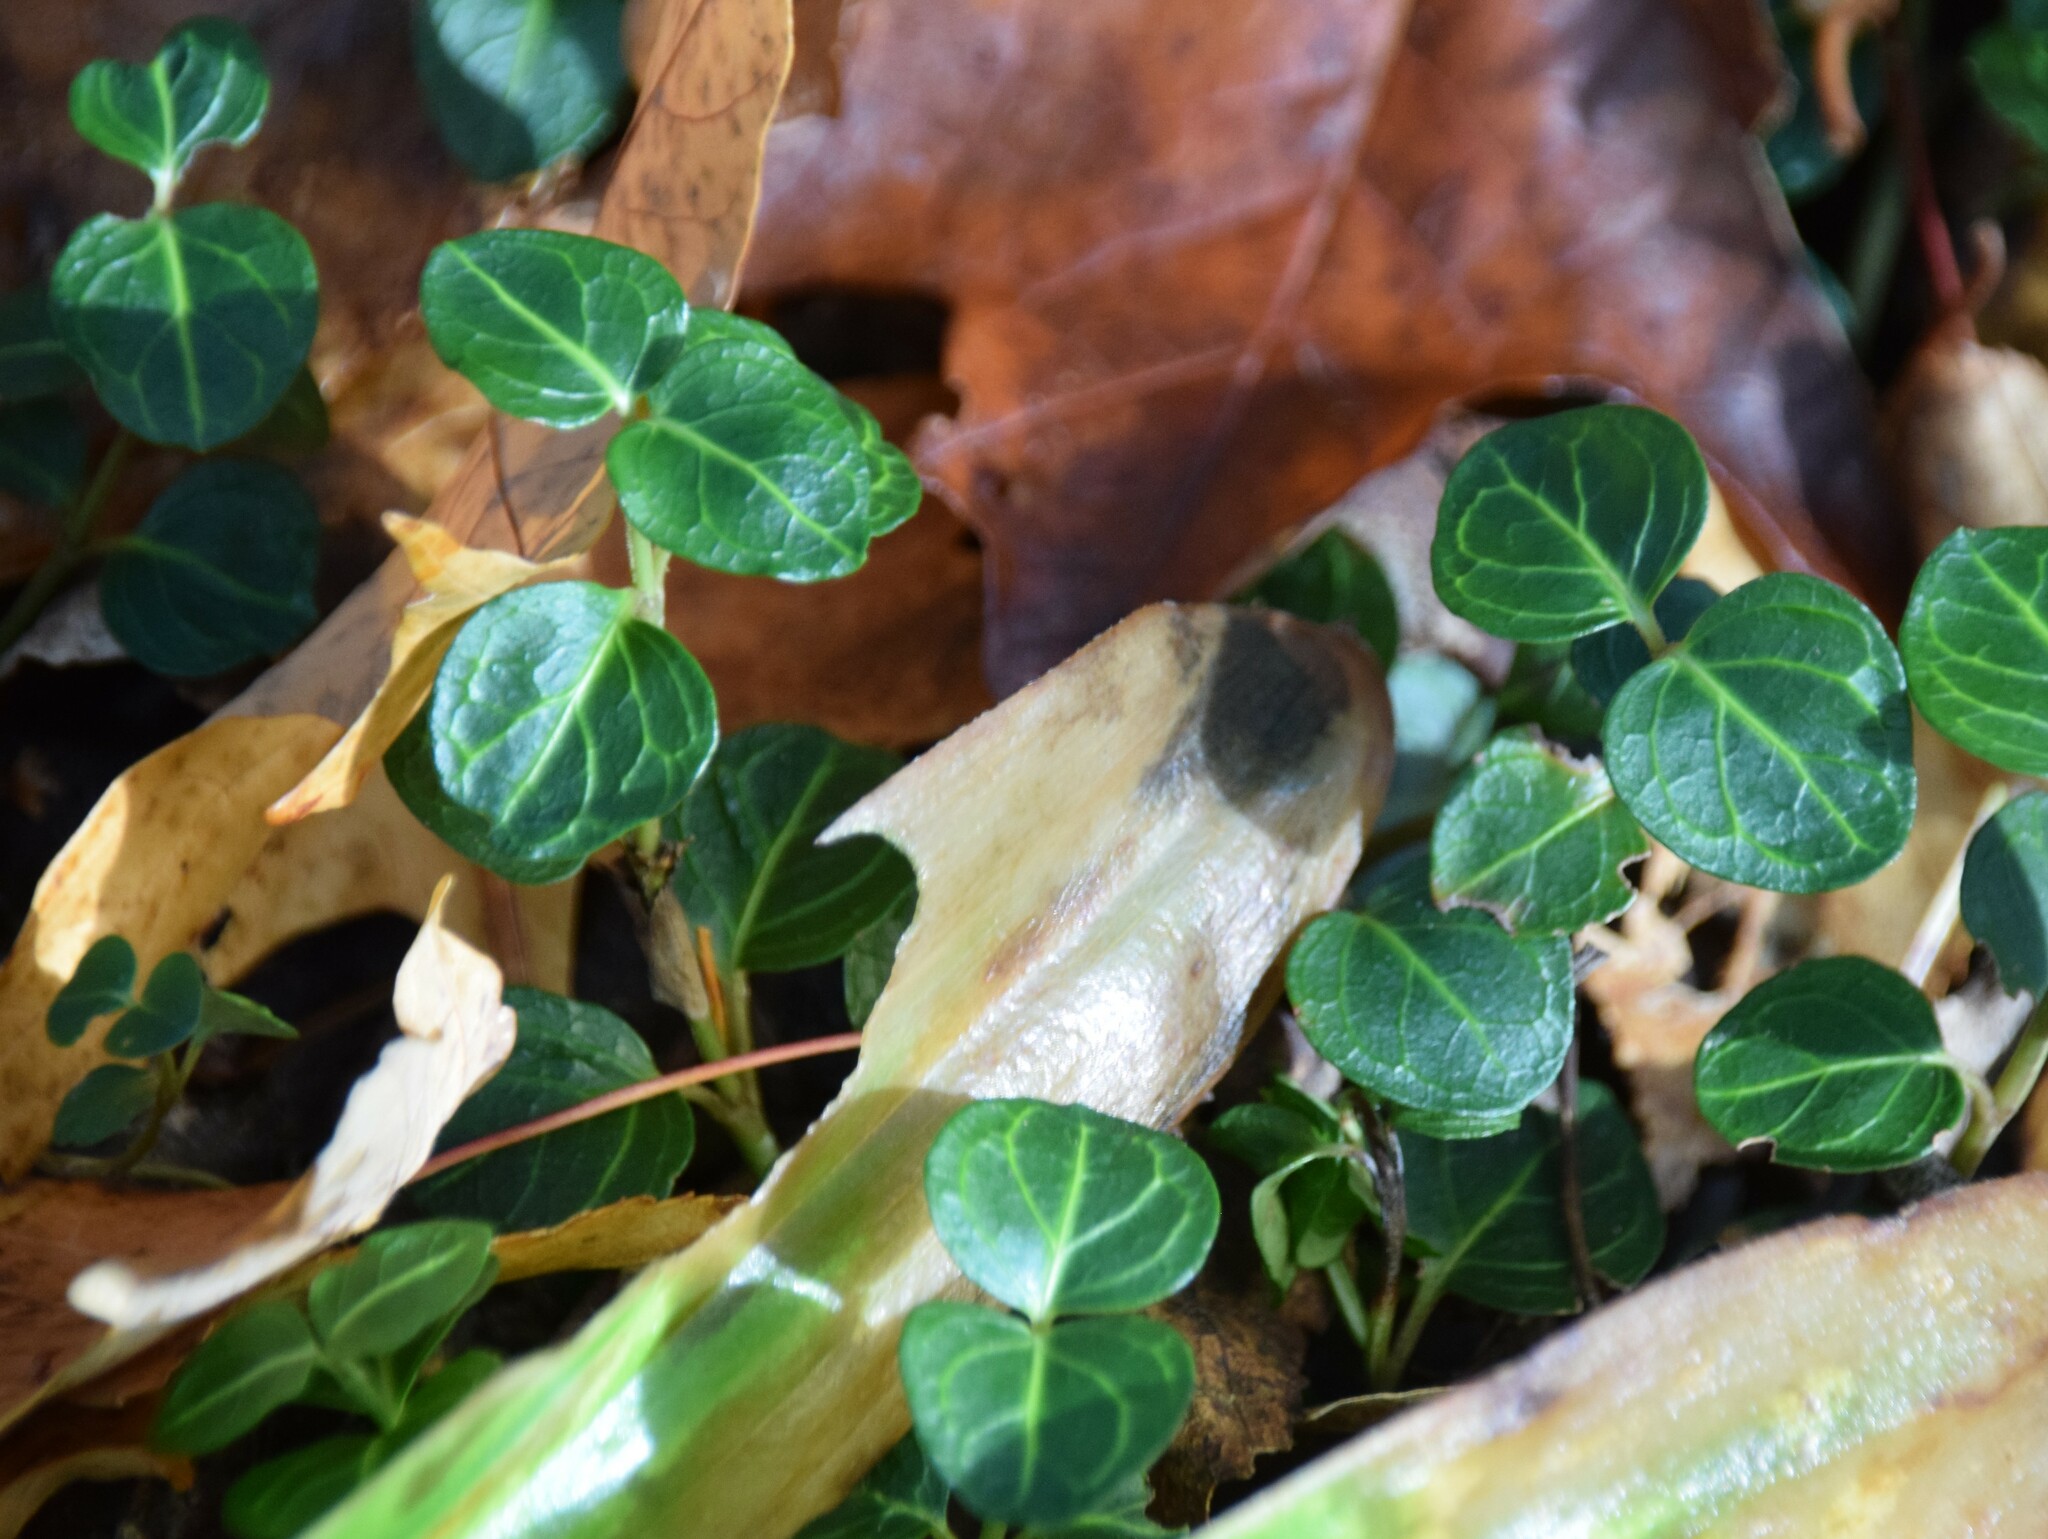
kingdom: Plantae
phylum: Tracheophyta
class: Magnoliopsida
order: Gentianales
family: Rubiaceae
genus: Mitchella
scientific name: Mitchella repens
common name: Partridge-berry
